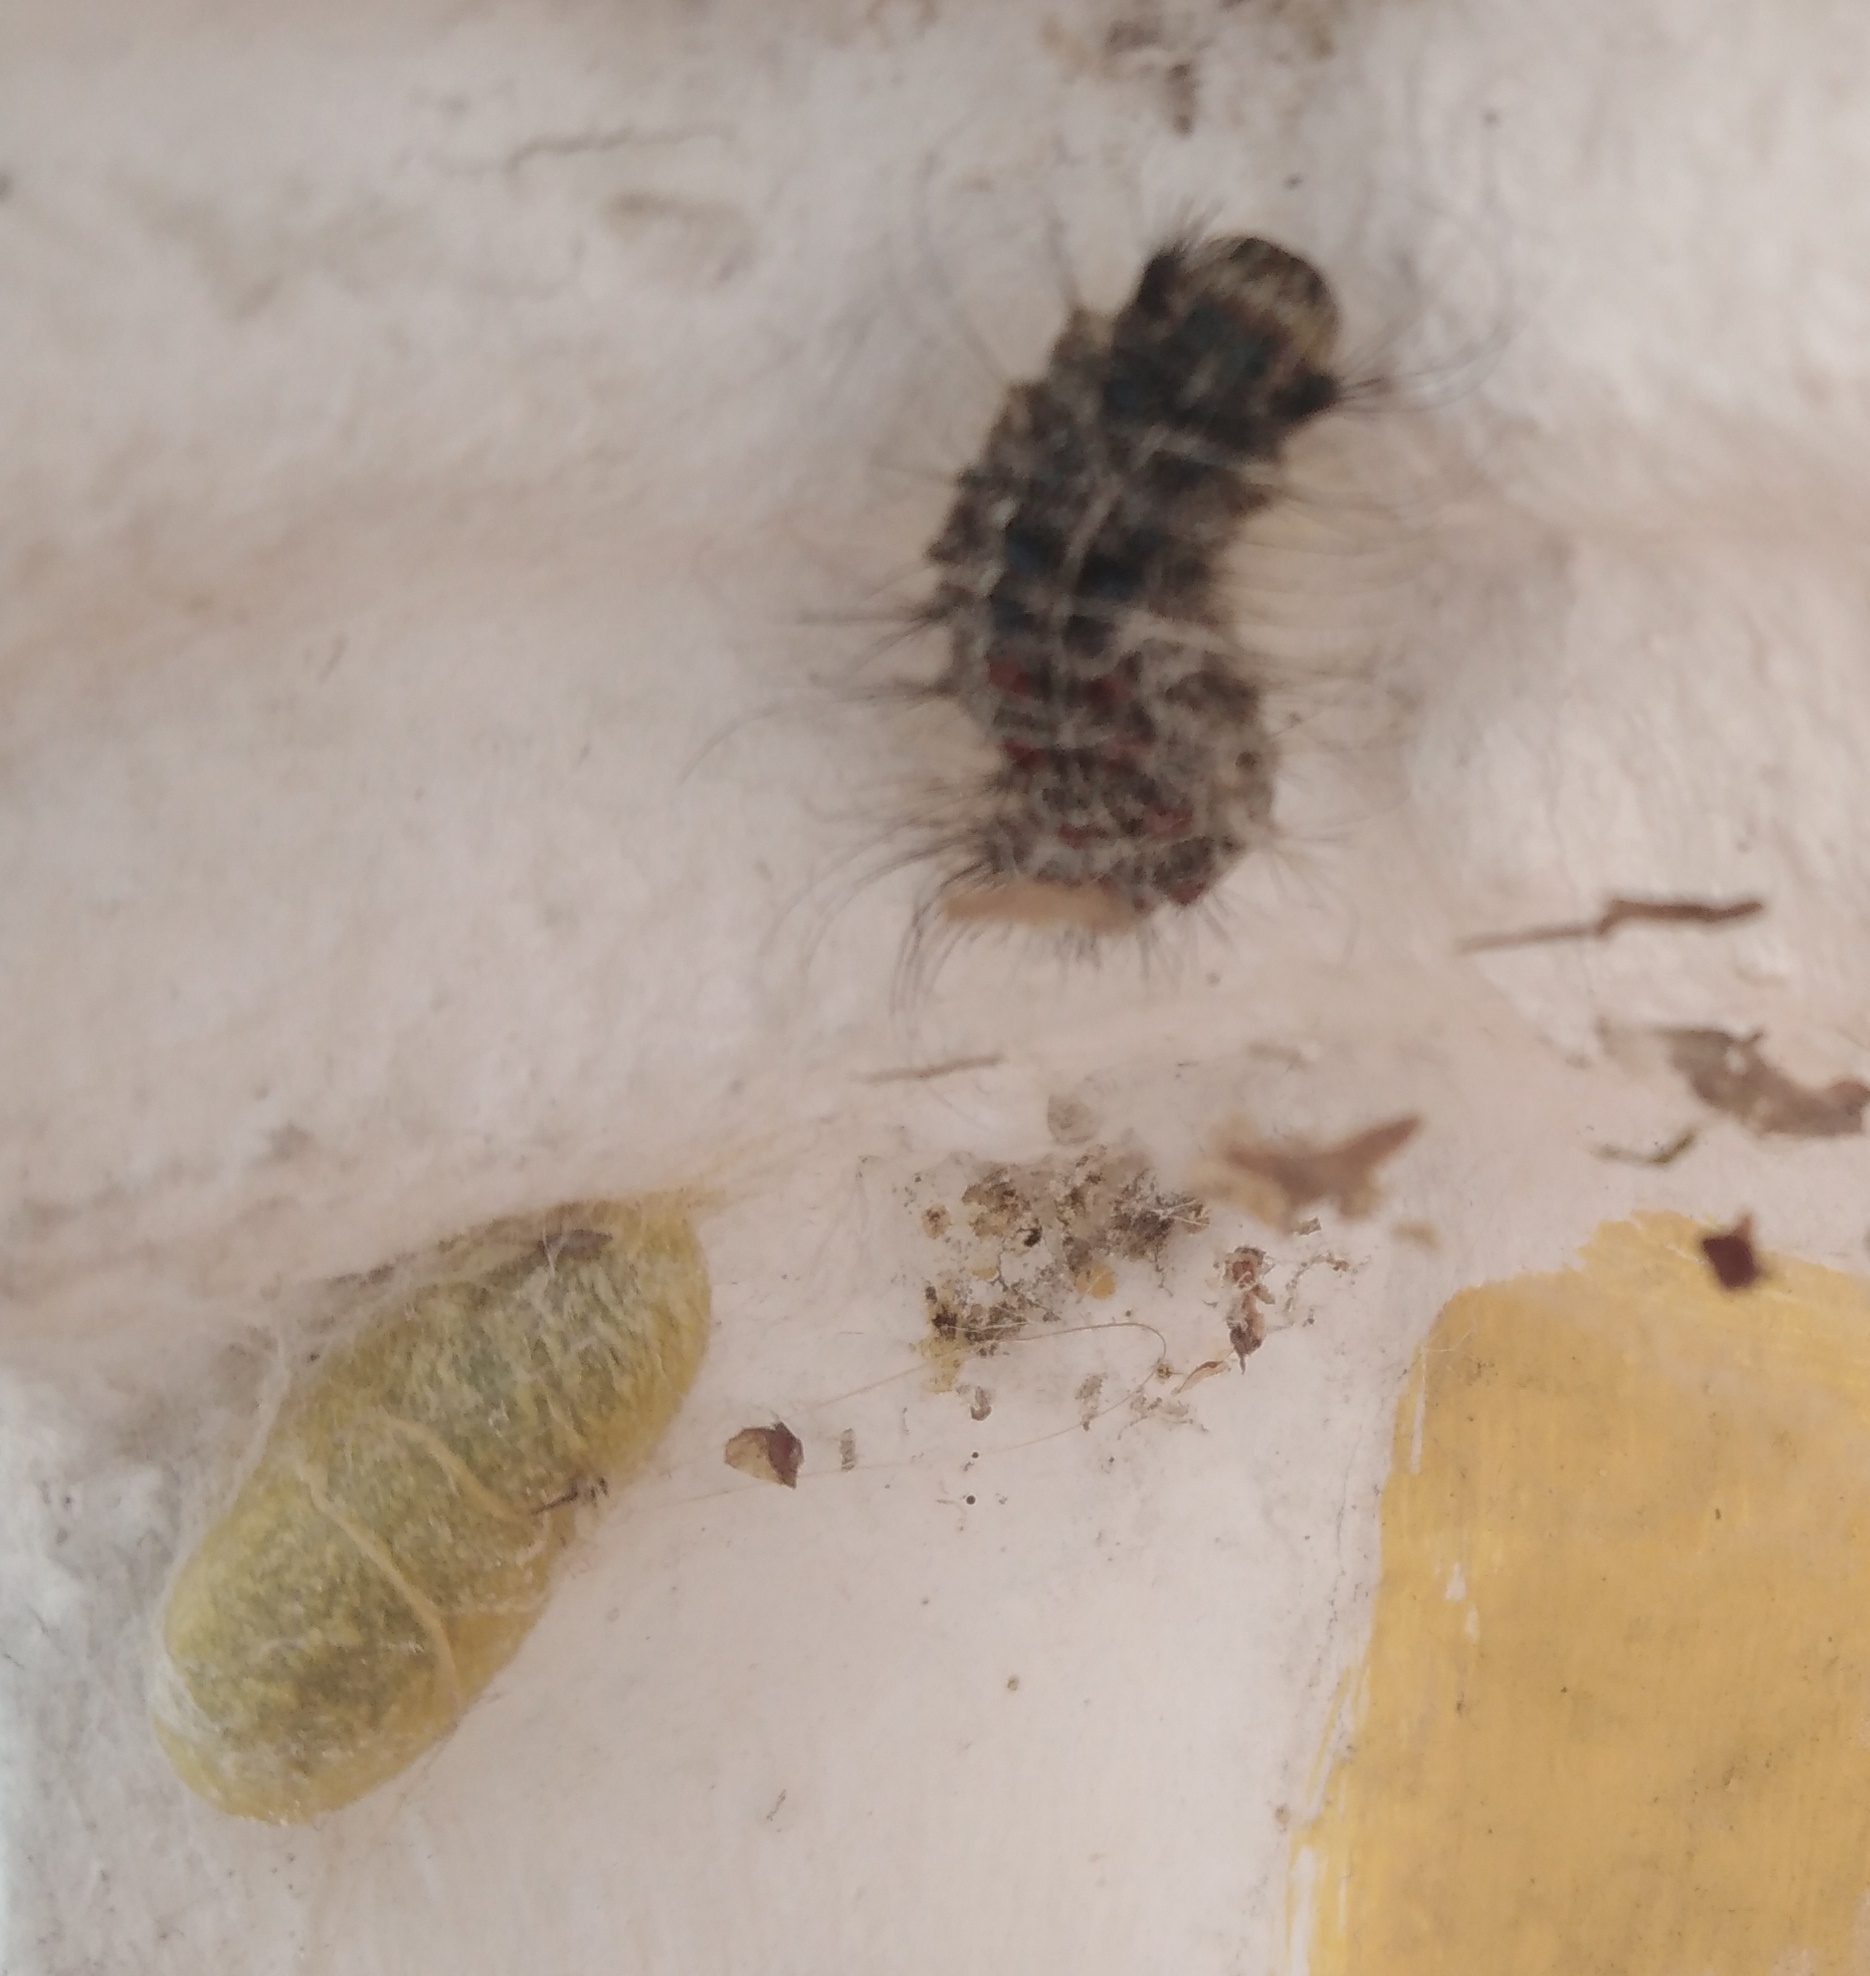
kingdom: Animalia
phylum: Arthropoda
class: Insecta
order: Lepidoptera
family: Erebidae
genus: Lymantria
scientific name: Lymantria dispar
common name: Gypsy moth
